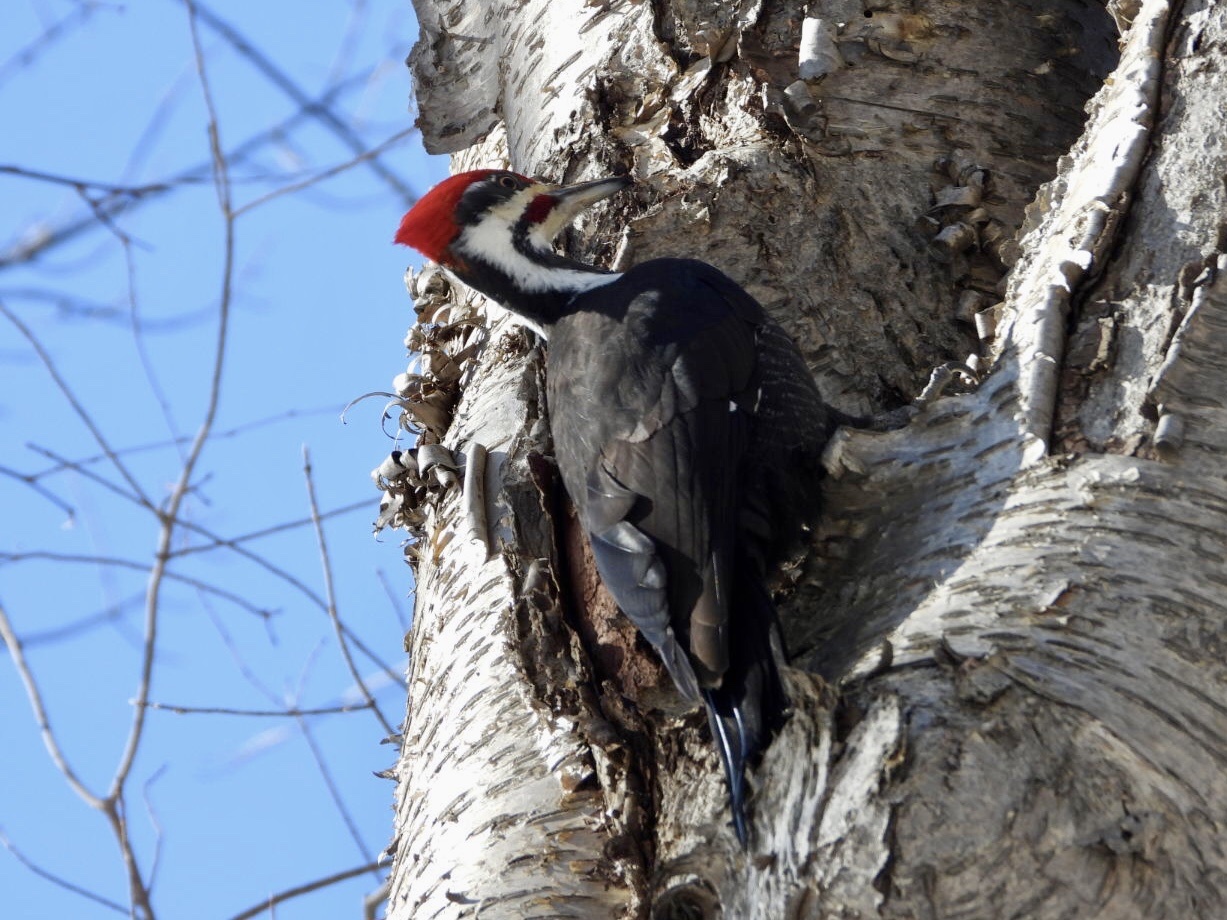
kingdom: Animalia
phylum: Chordata
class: Aves
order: Piciformes
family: Picidae
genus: Dryocopus
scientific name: Dryocopus pileatus
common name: Pileated woodpecker
